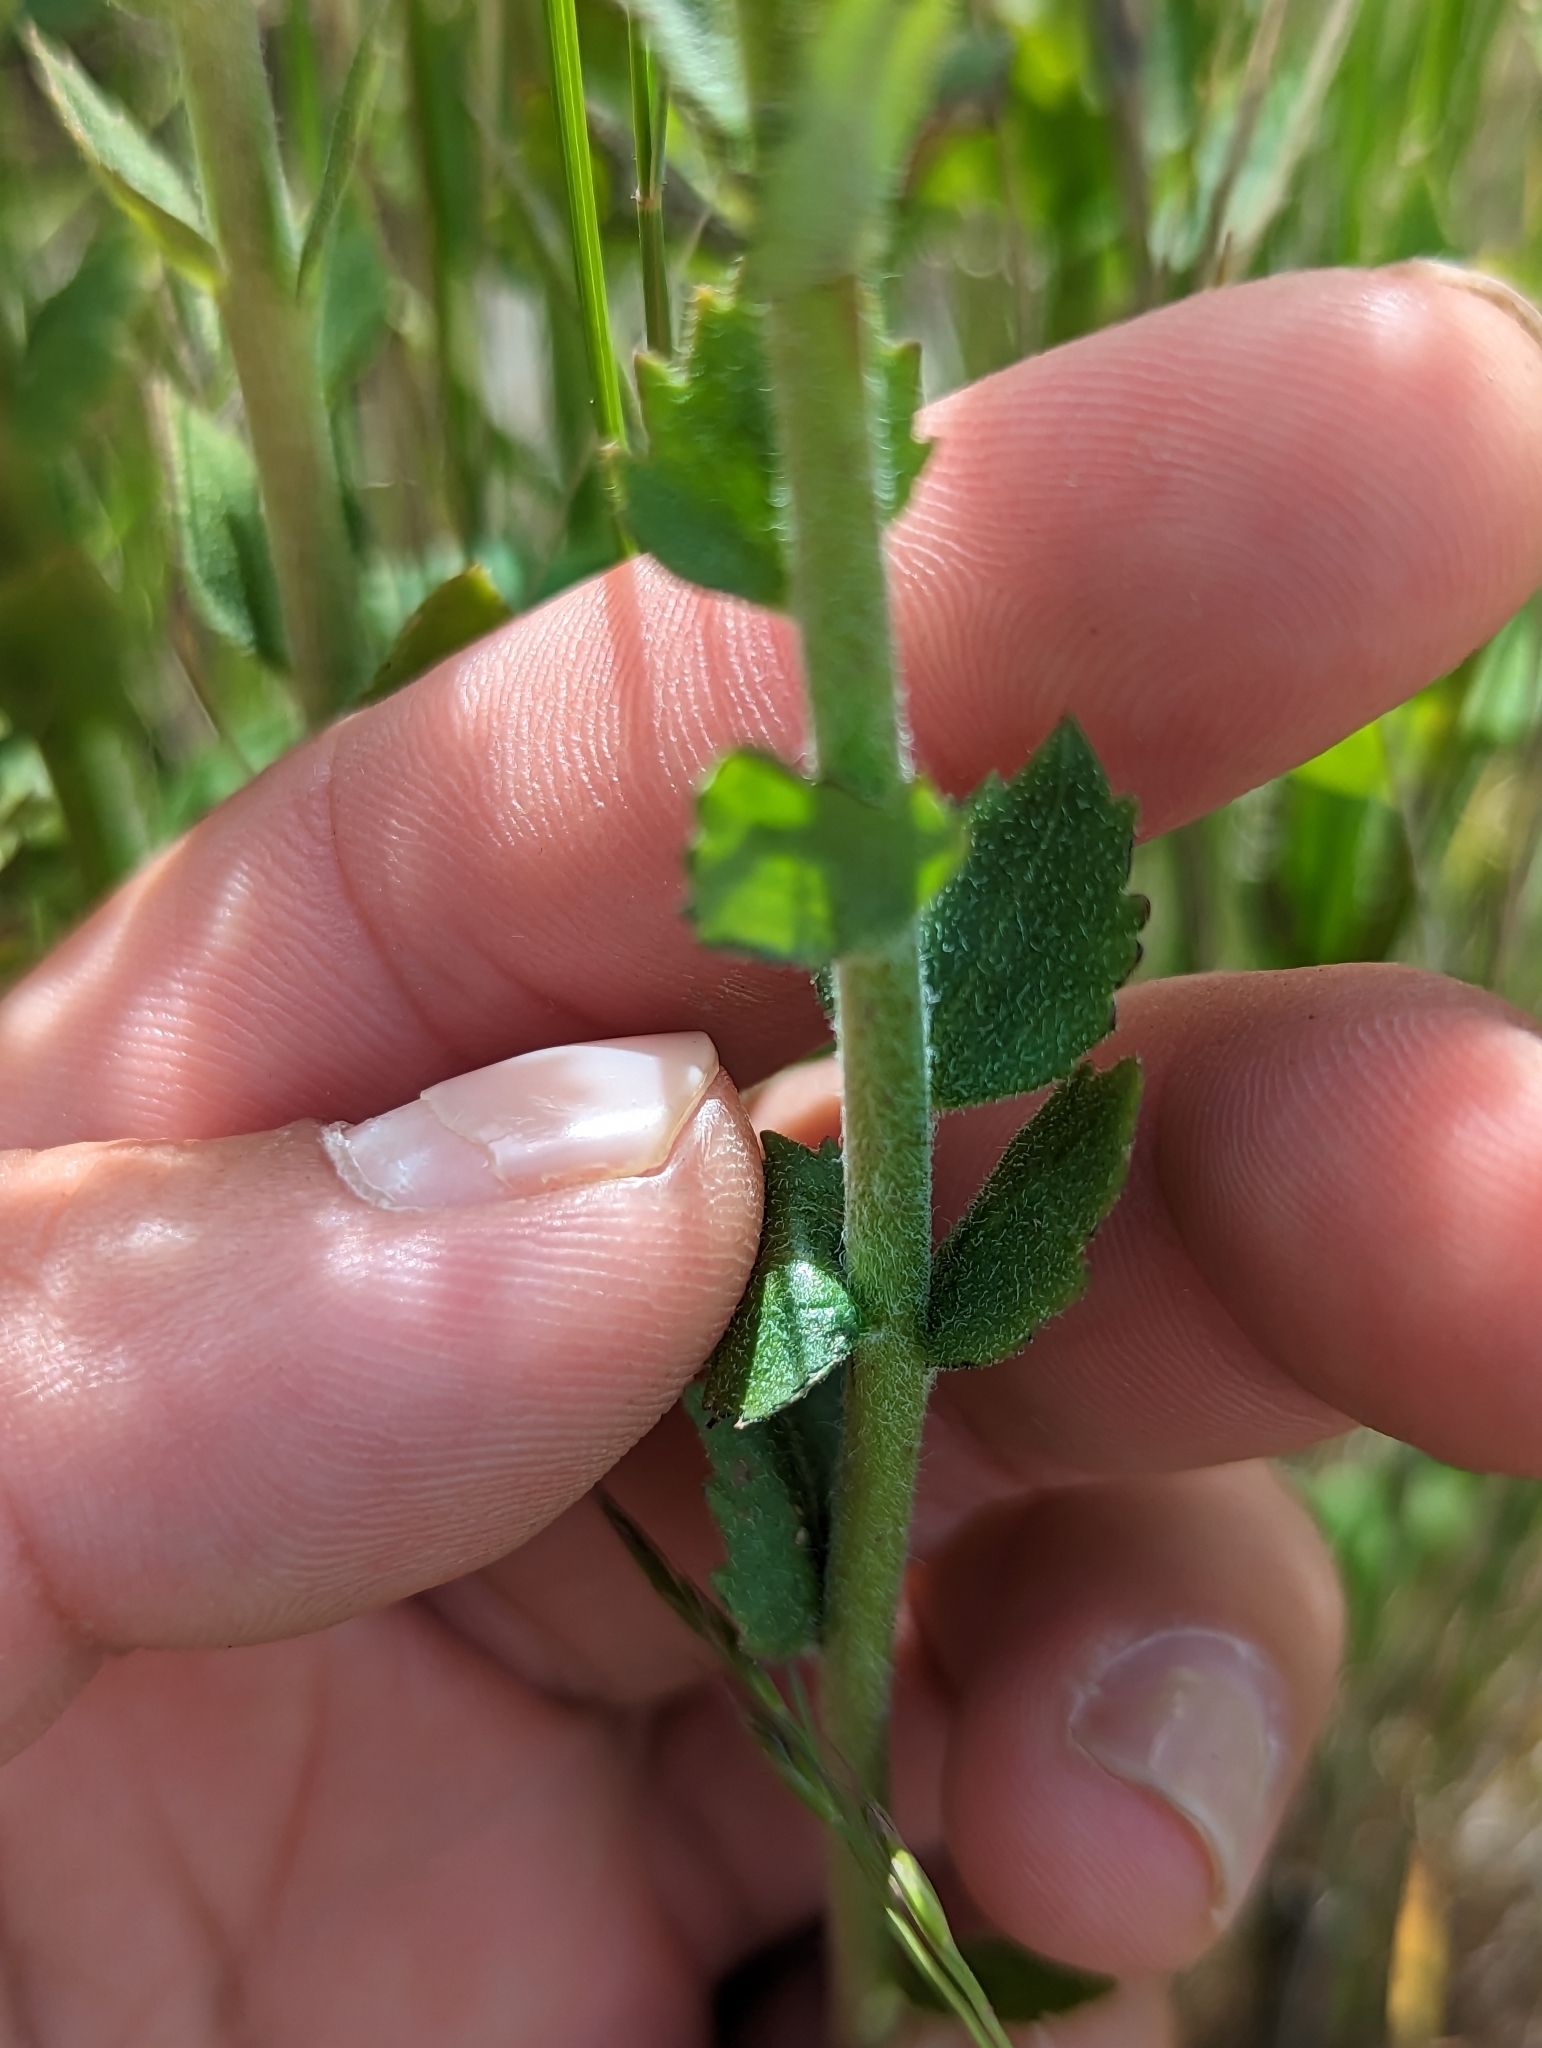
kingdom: Plantae
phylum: Tracheophyta
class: Magnoliopsida
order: Lamiales
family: Plantaginaceae
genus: Synthyris
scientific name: Synthyris rubra
